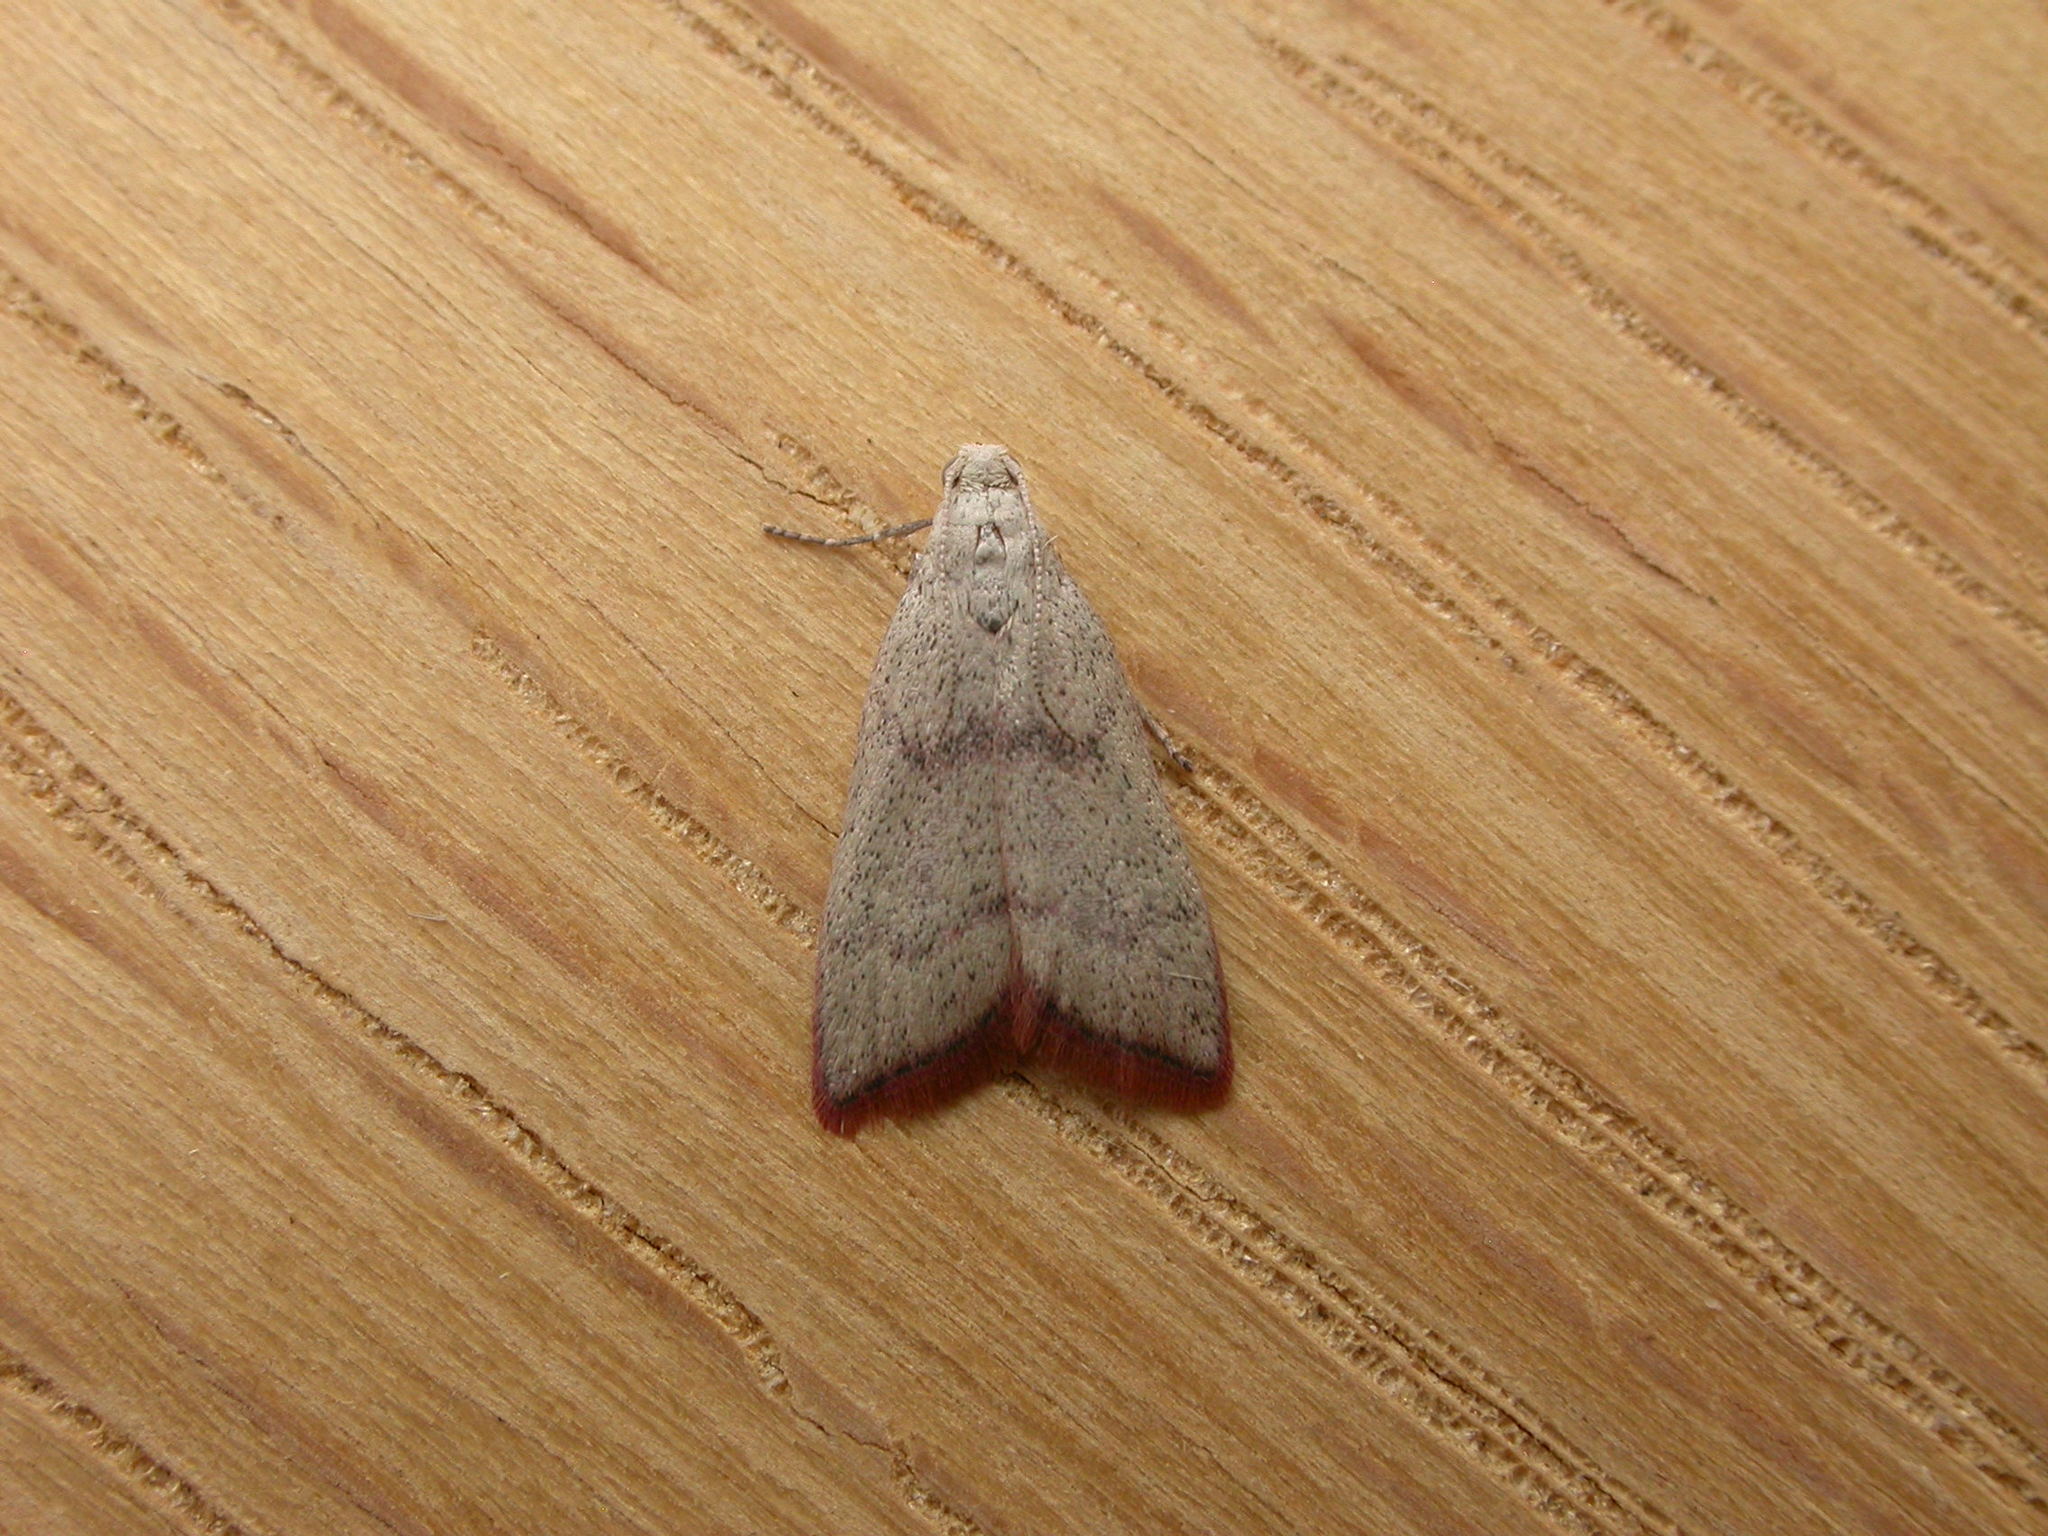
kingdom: Animalia
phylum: Arthropoda
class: Insecta
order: Lepidoptera
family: Pyralidae
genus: Callionyma
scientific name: Callionyma sarcodes
